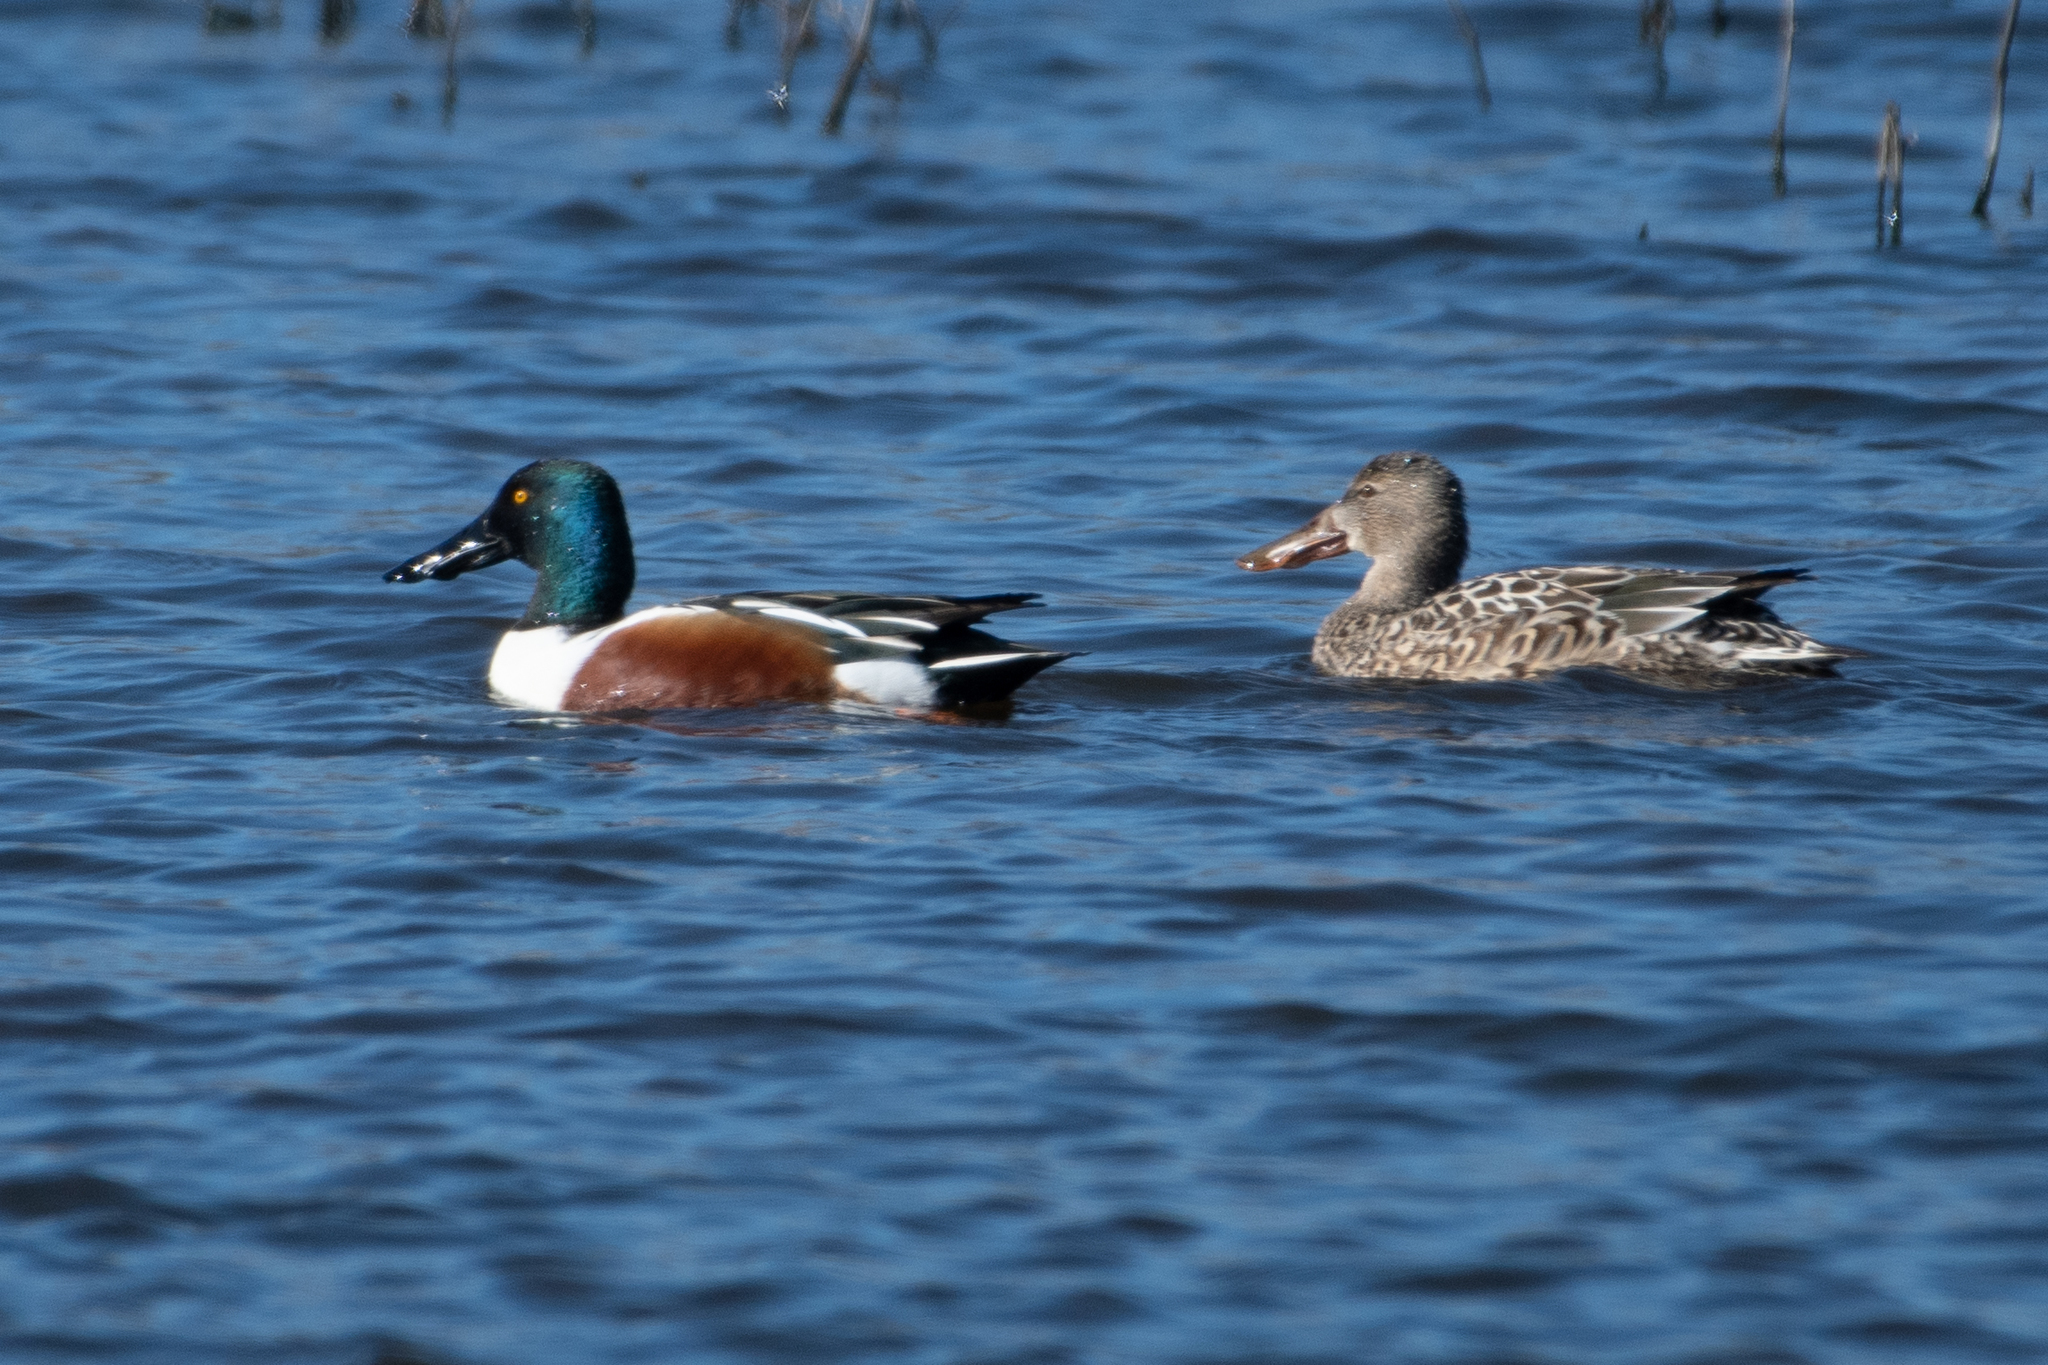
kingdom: Animalia
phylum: Chordata
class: Aves
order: Anseriformes
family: Anatidae
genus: Spatula
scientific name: Spatula clypeata
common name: Northern shoveler
